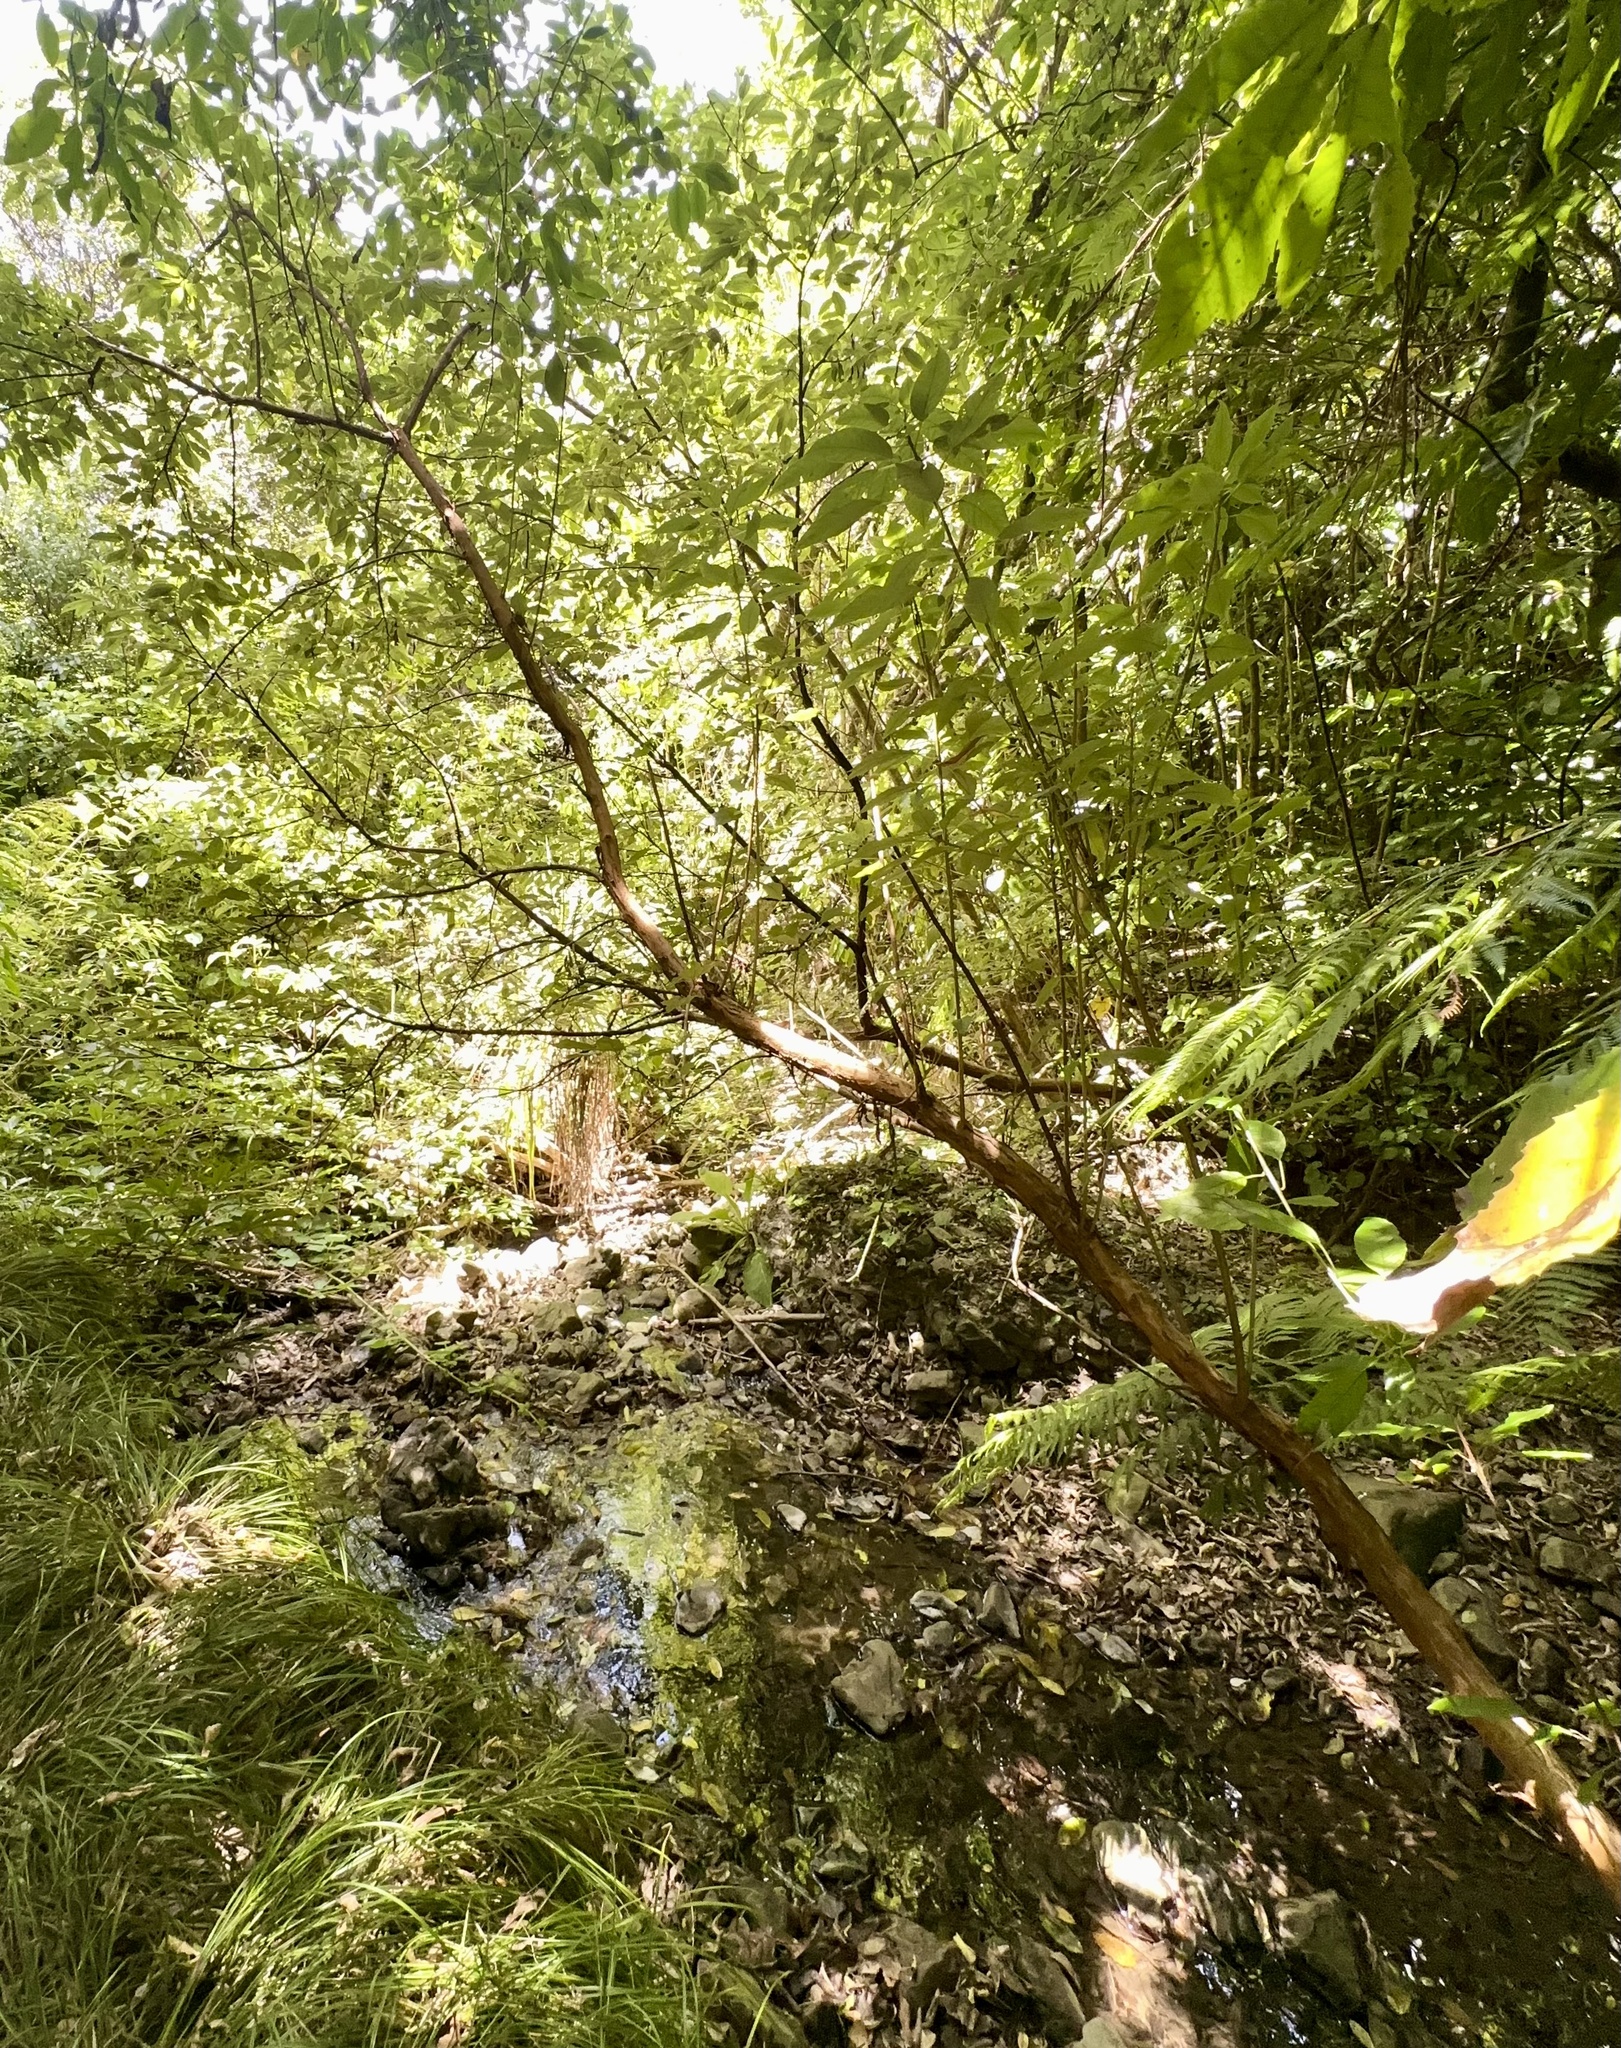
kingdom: Plantae
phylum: Tracheophyta
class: Magnoliopsida
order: Myrtales
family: Onagraceae
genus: Fuchsia
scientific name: Fuchsia excorticata
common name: Tree fuchsia
